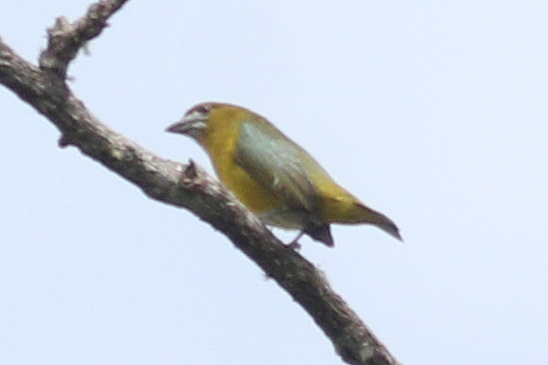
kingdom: Animalia
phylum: Chordata
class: Aves
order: Passeriformes
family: Fringillidae
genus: Euphonia
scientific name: Euphonia chrysopasta
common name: White-lored euphonia
